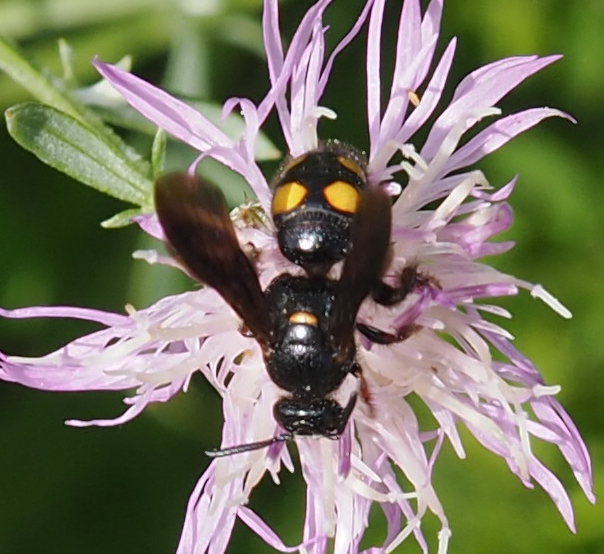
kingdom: Animalia
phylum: Arthropoda
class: Insecta
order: Hymenoptera
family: Scoliidae
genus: Scolia
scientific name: Scolia nobilitata
